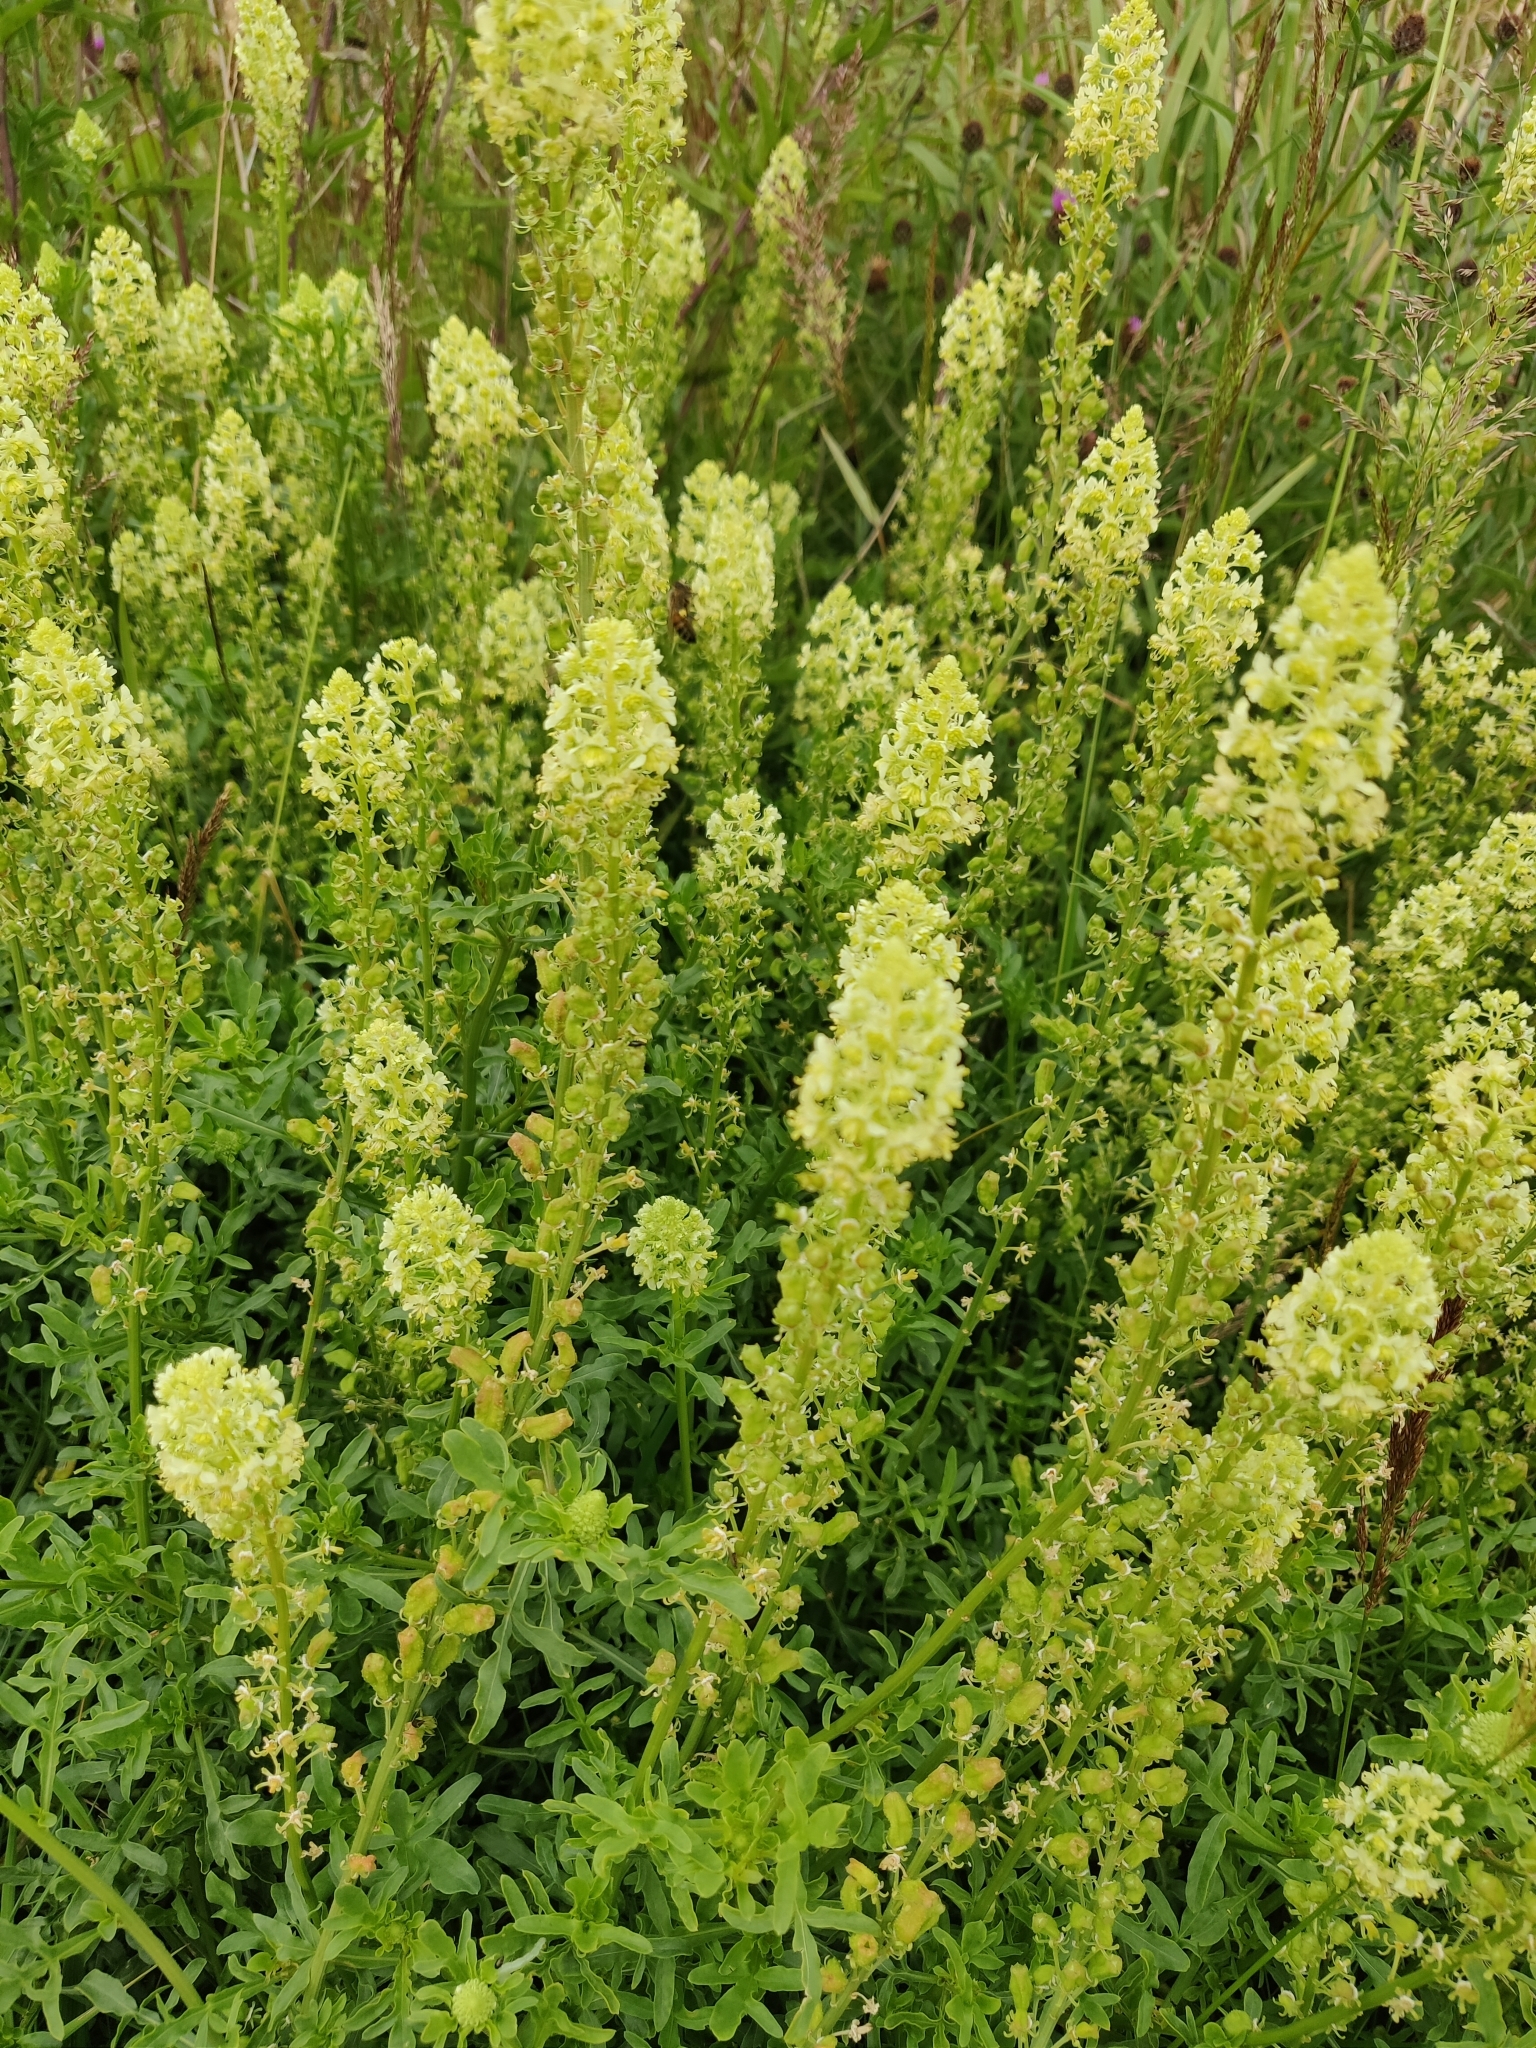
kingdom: Plantae
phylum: Tracheophyta
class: Magnoliopsida
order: Brassicales
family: Resedaceae
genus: Reseda
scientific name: Reseda lutea
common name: Wild mignonette
